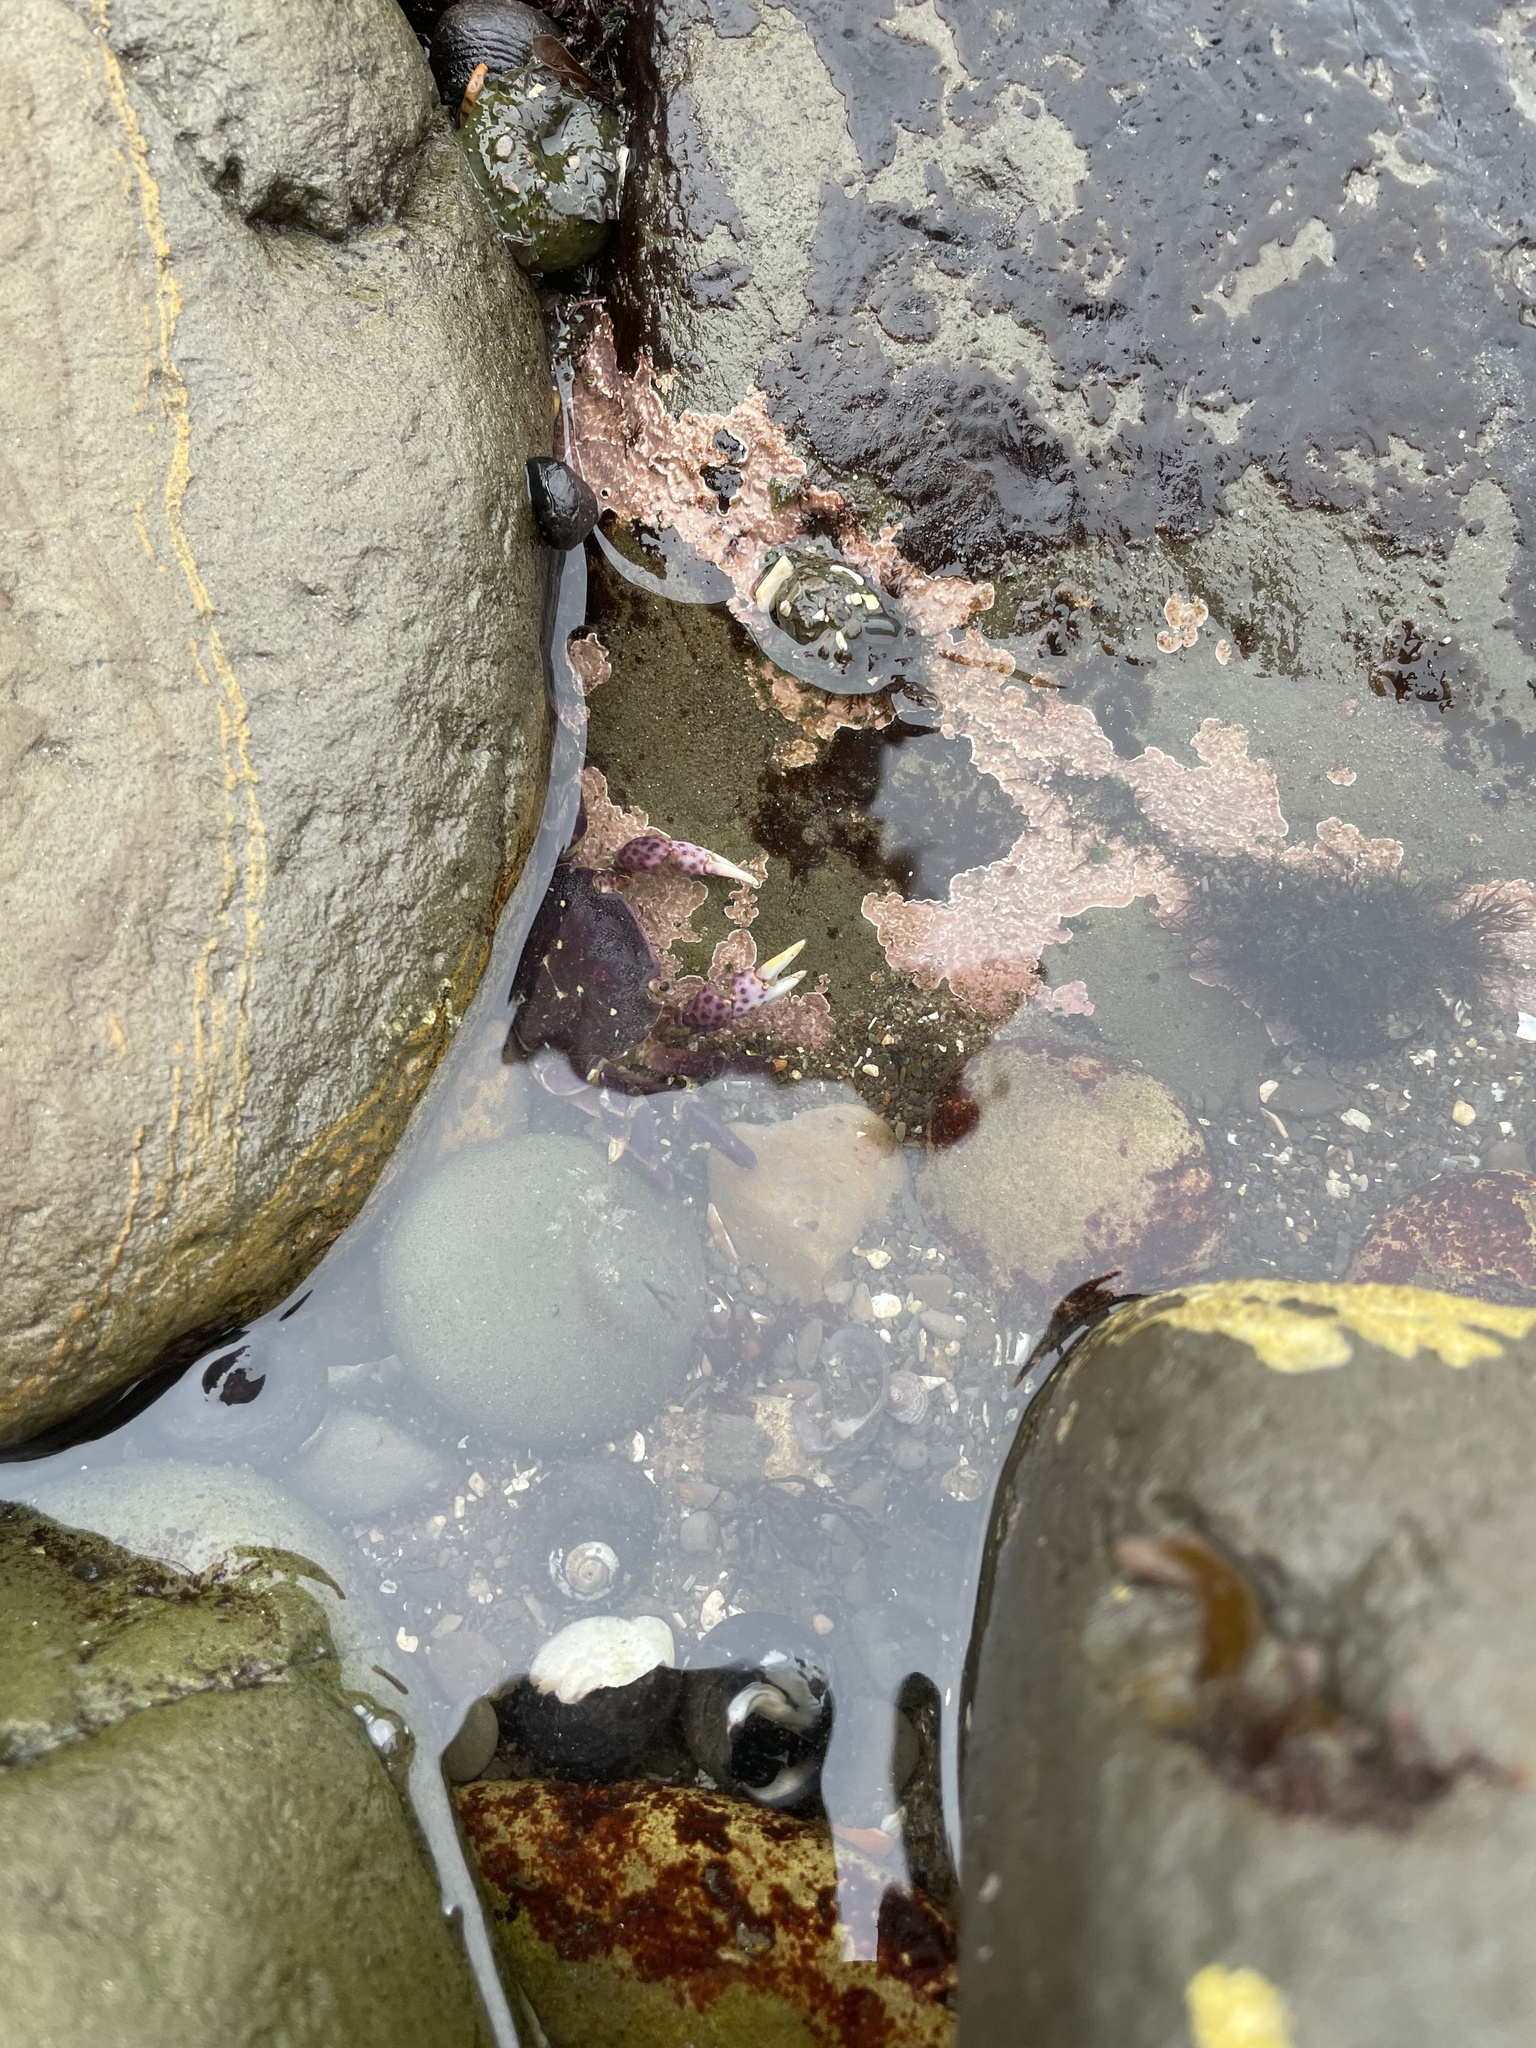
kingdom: Animalia
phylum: Arthropoda
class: Malacostraca
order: Decapoda
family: Varunidae
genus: Hemigrapsus
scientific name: Hemigrapsus nudus
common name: Purple shore crab
